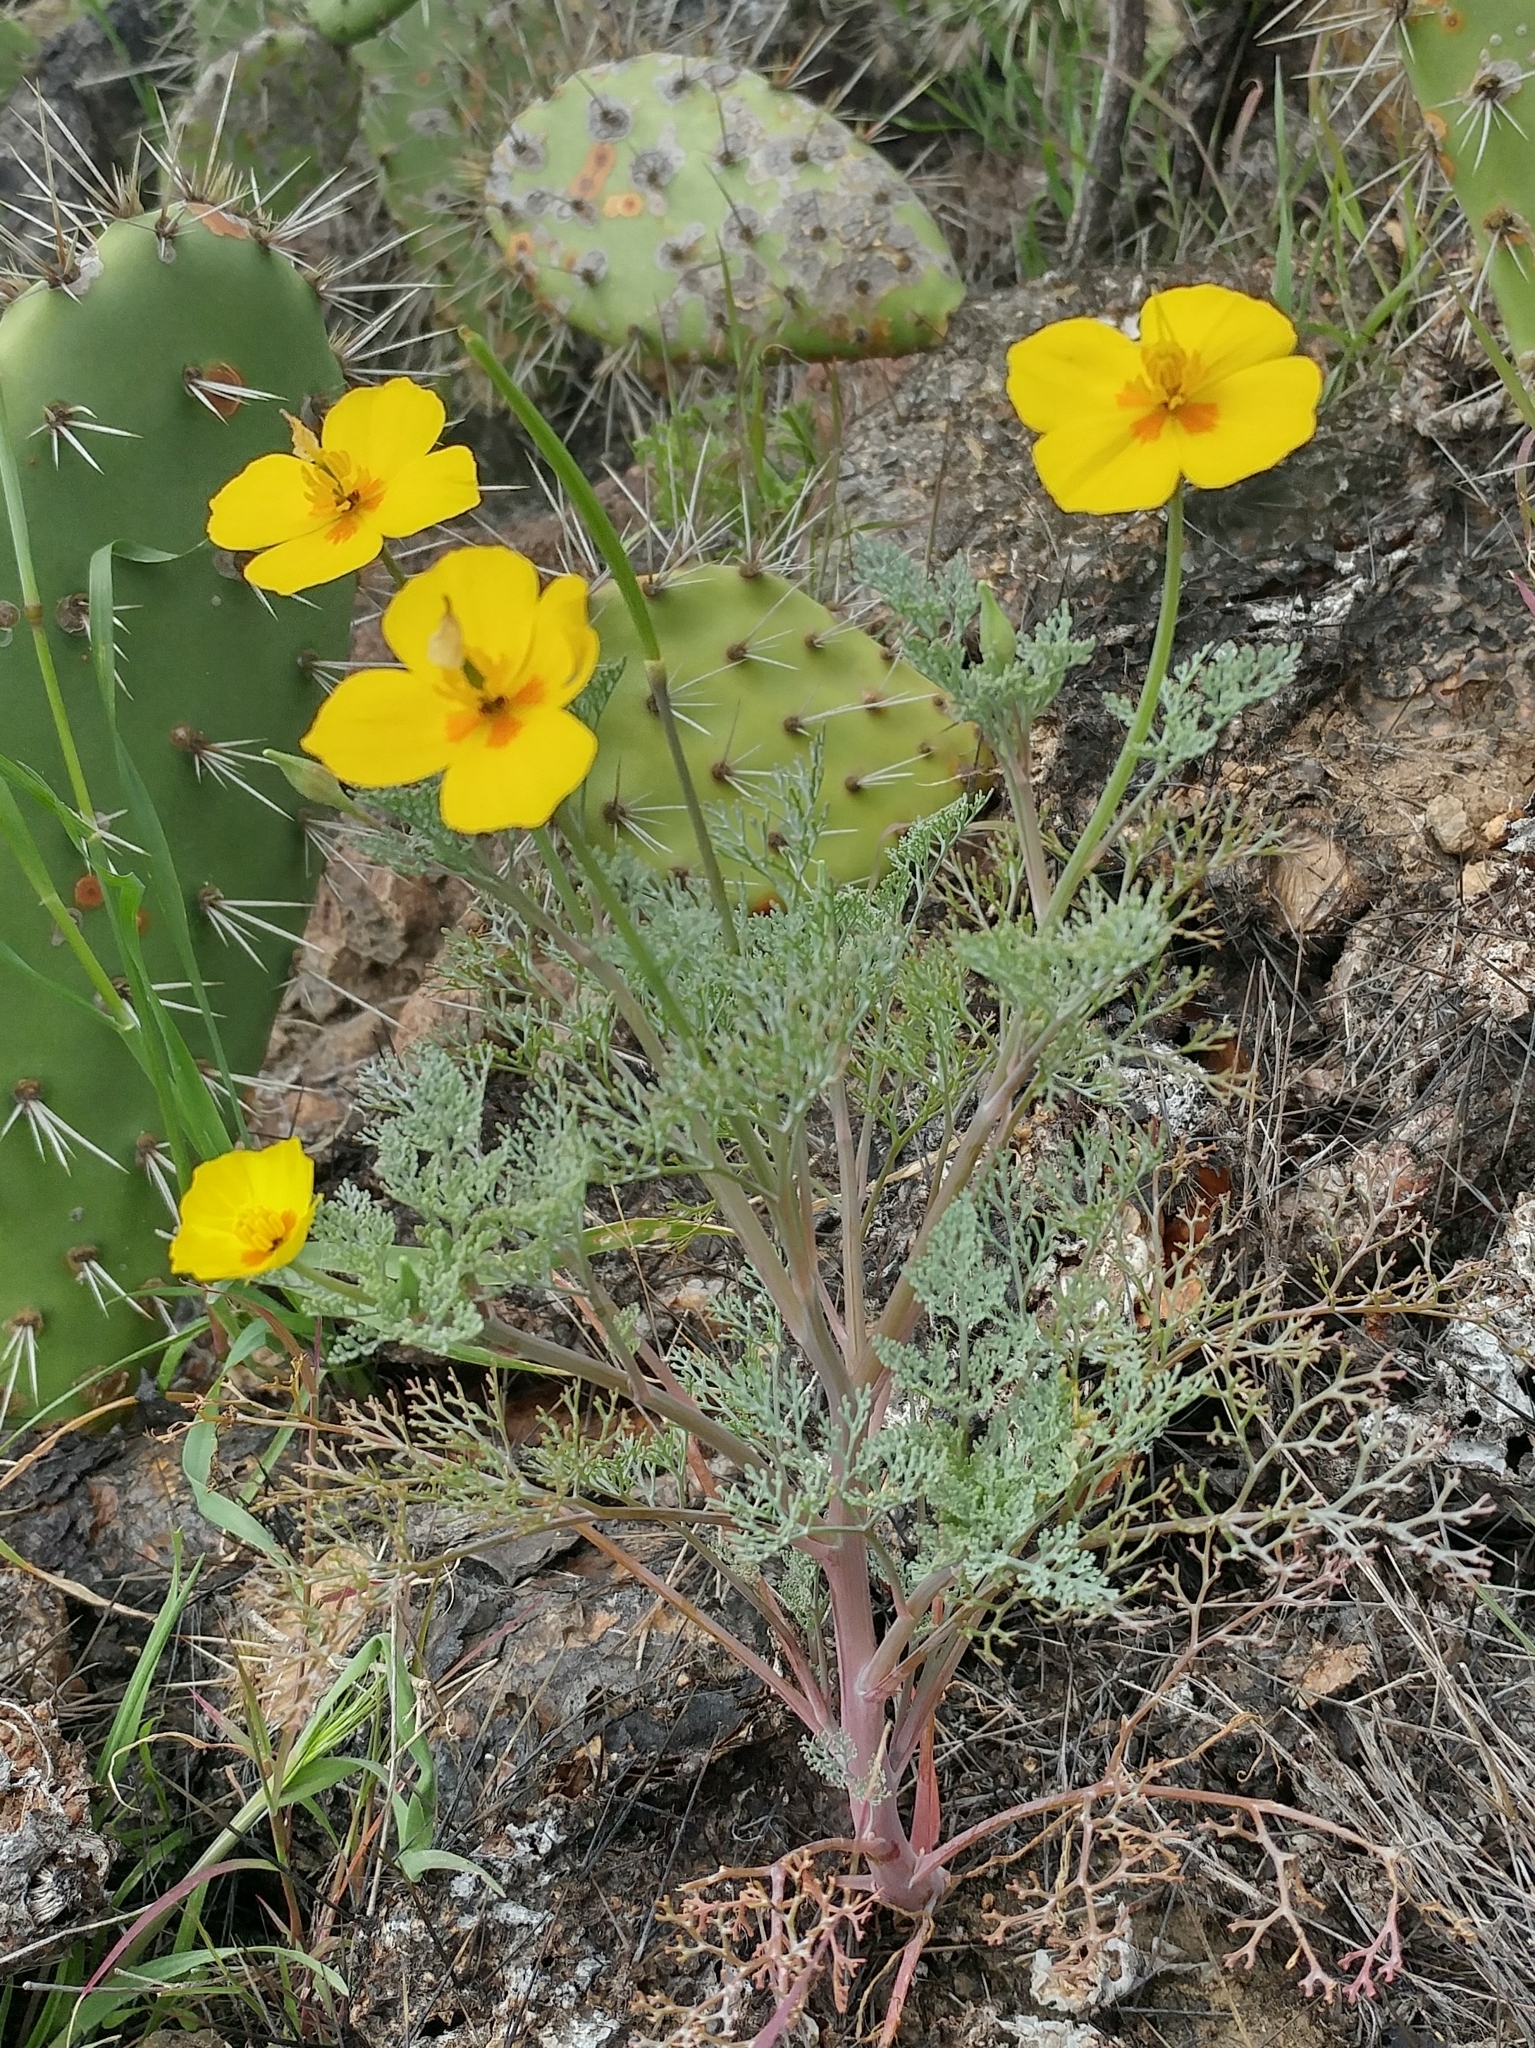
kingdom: Plantae
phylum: Tracheophyta
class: Magnoliopsida
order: Ranunculales
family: Papaveraceae
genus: Eschscholzia
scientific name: Eschscholzia ramosa
